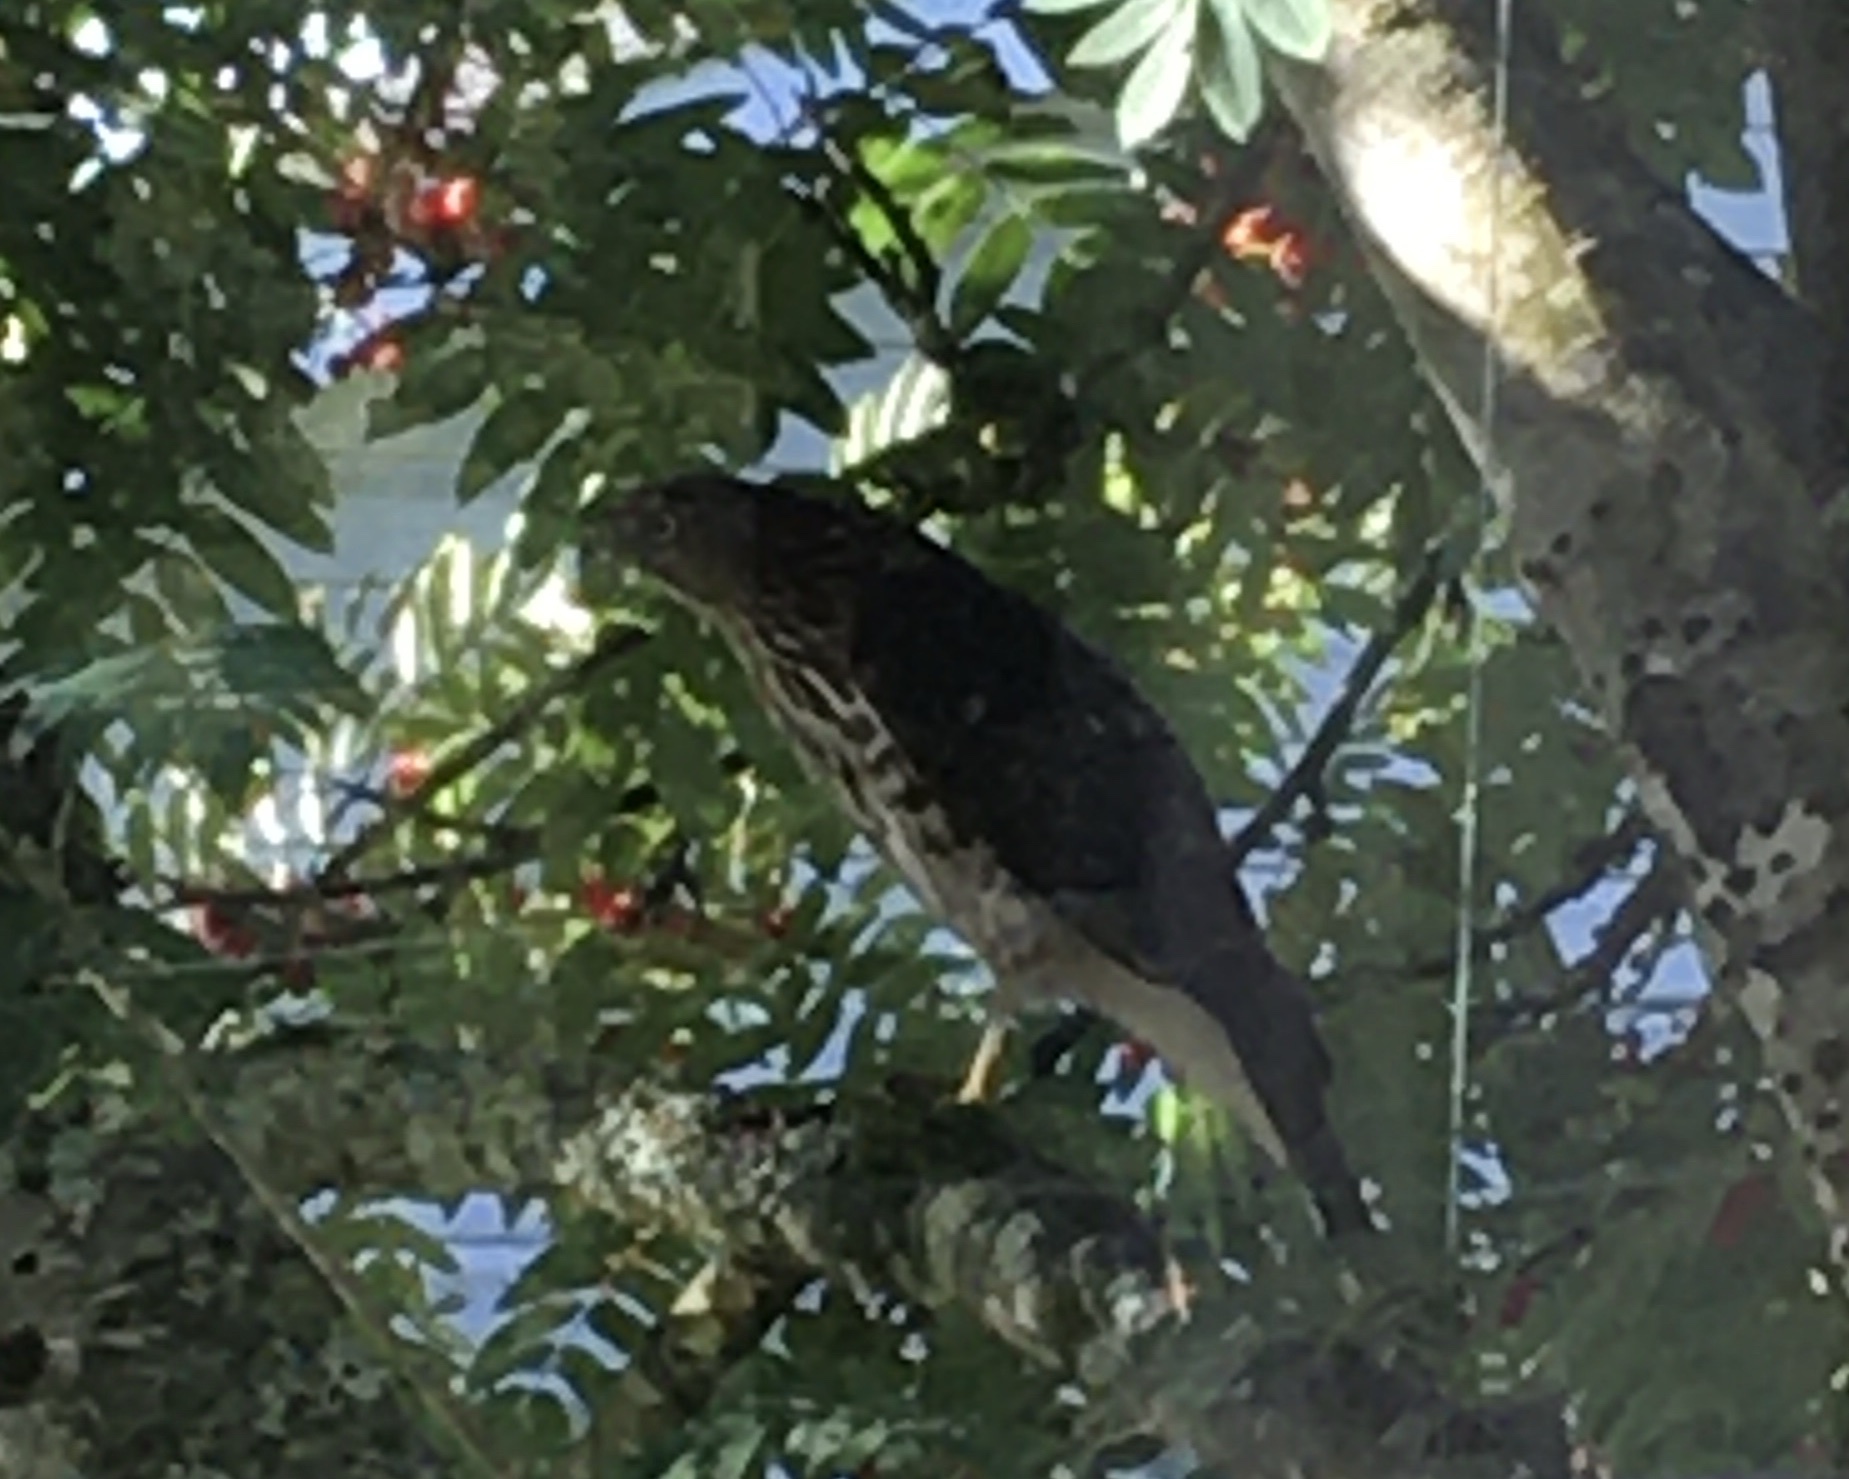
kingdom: Animalia
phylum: Chordata
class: Aves
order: Accipitriformes
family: Accipitridae
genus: Accipiter
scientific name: Accipiter cooperii
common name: Cooper's hawk
